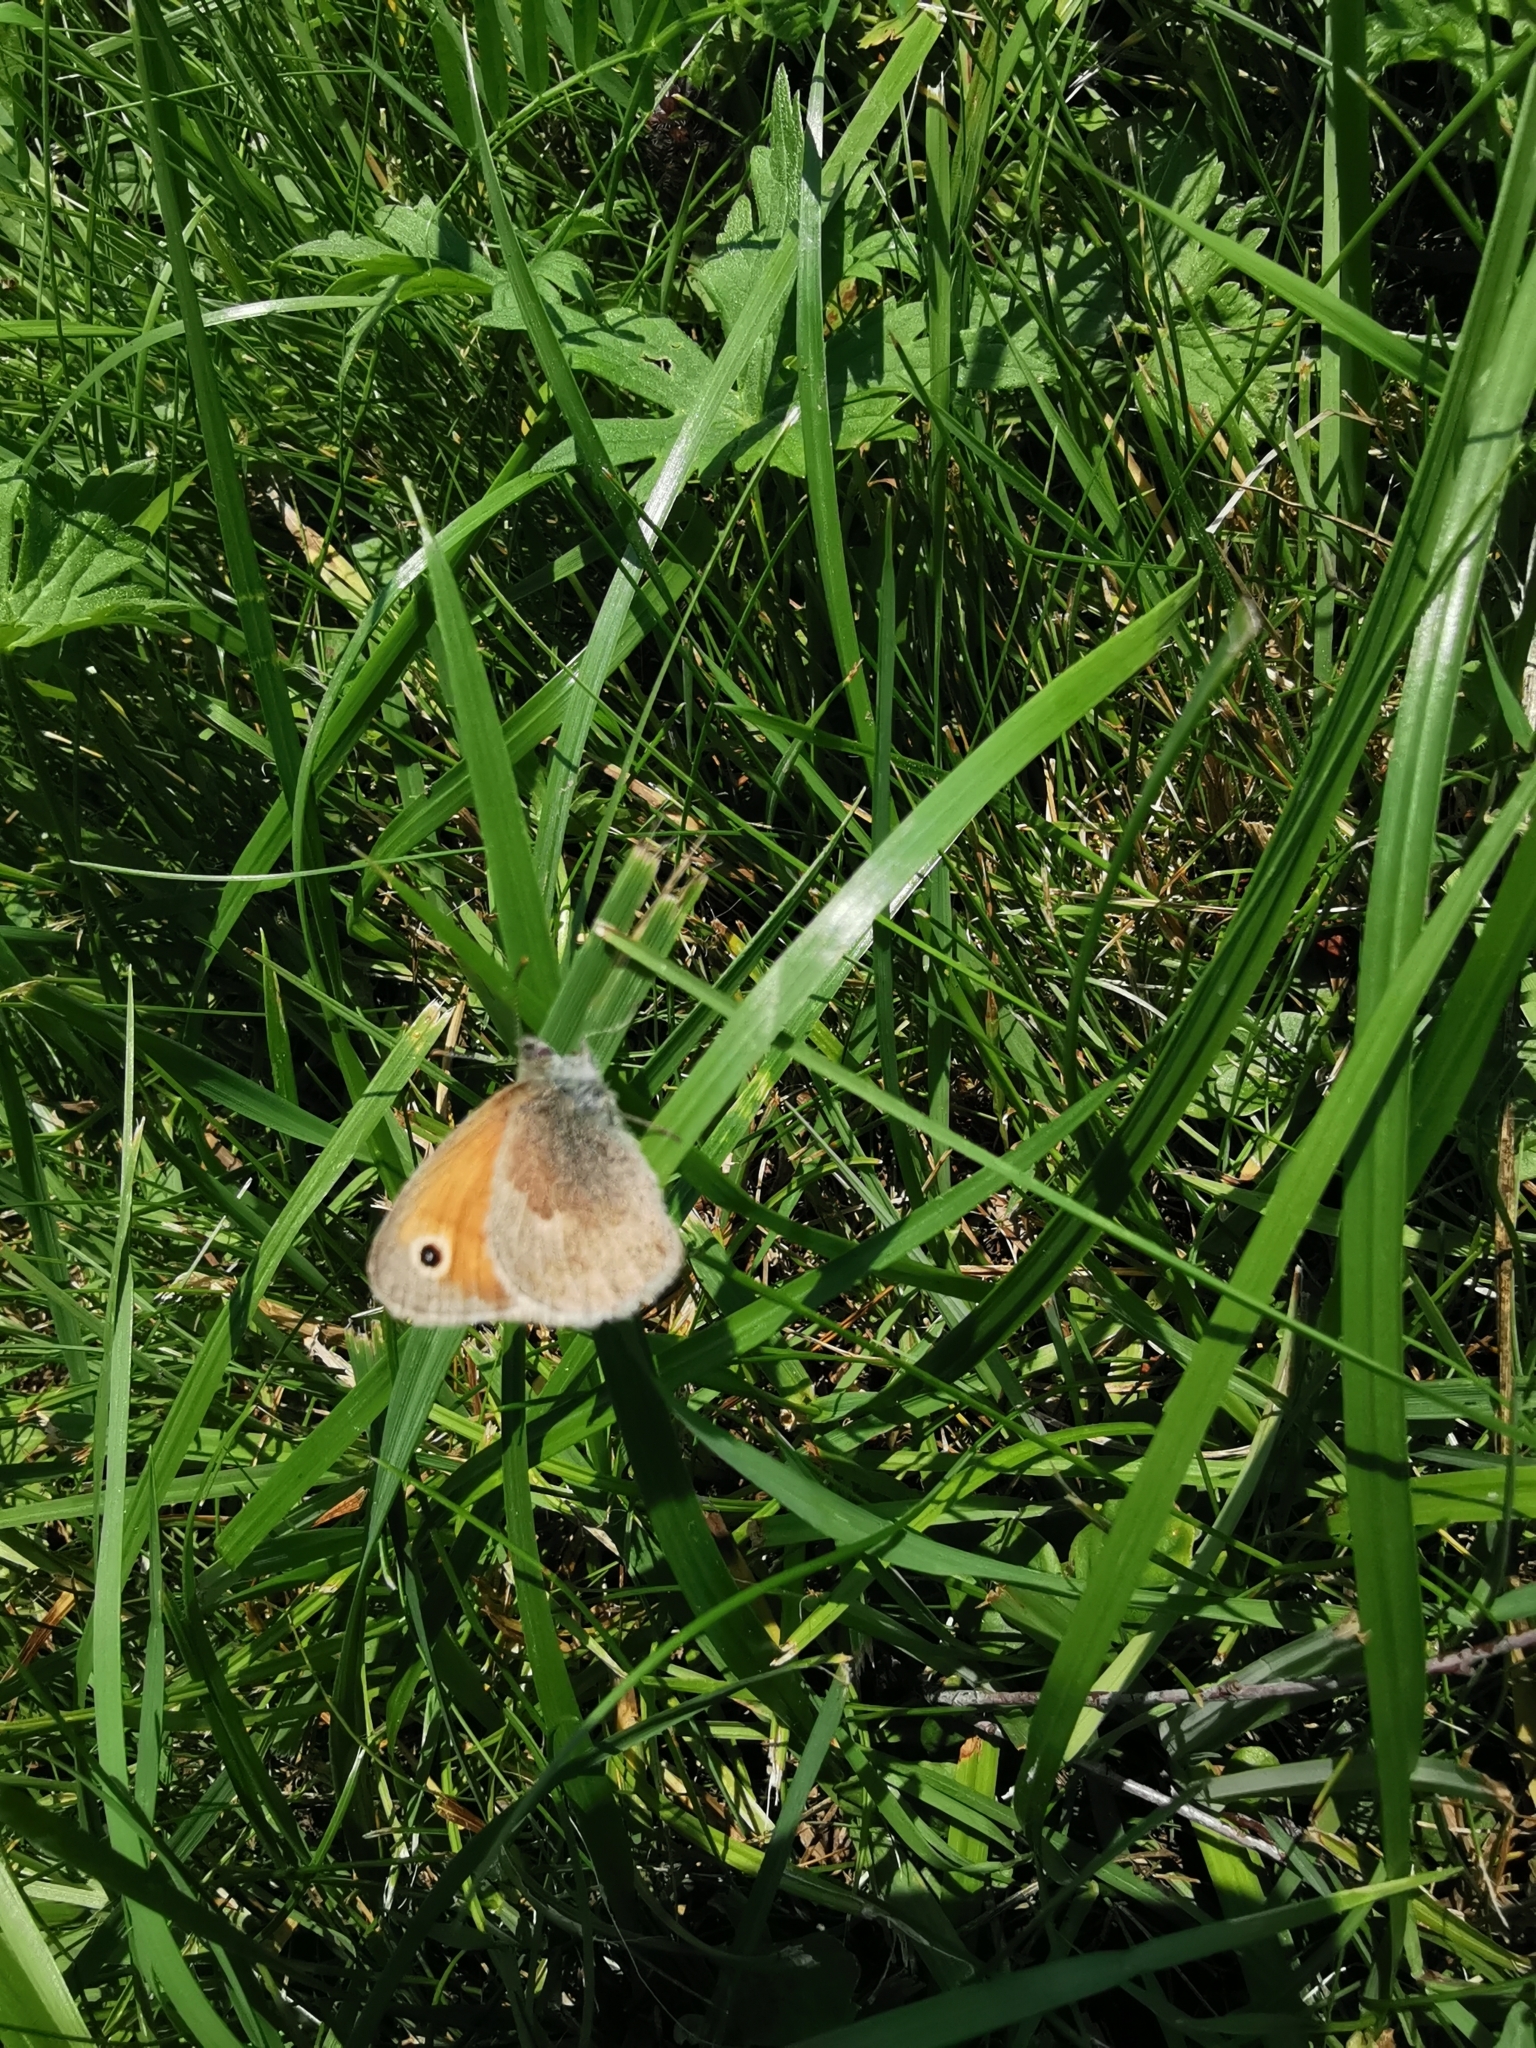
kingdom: Animalia
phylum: Arthropoda
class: Insecta
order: Lepidoptera
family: Nymphalidae
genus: Coenonympha
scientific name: Coenonympha pamphilus
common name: Small heath
